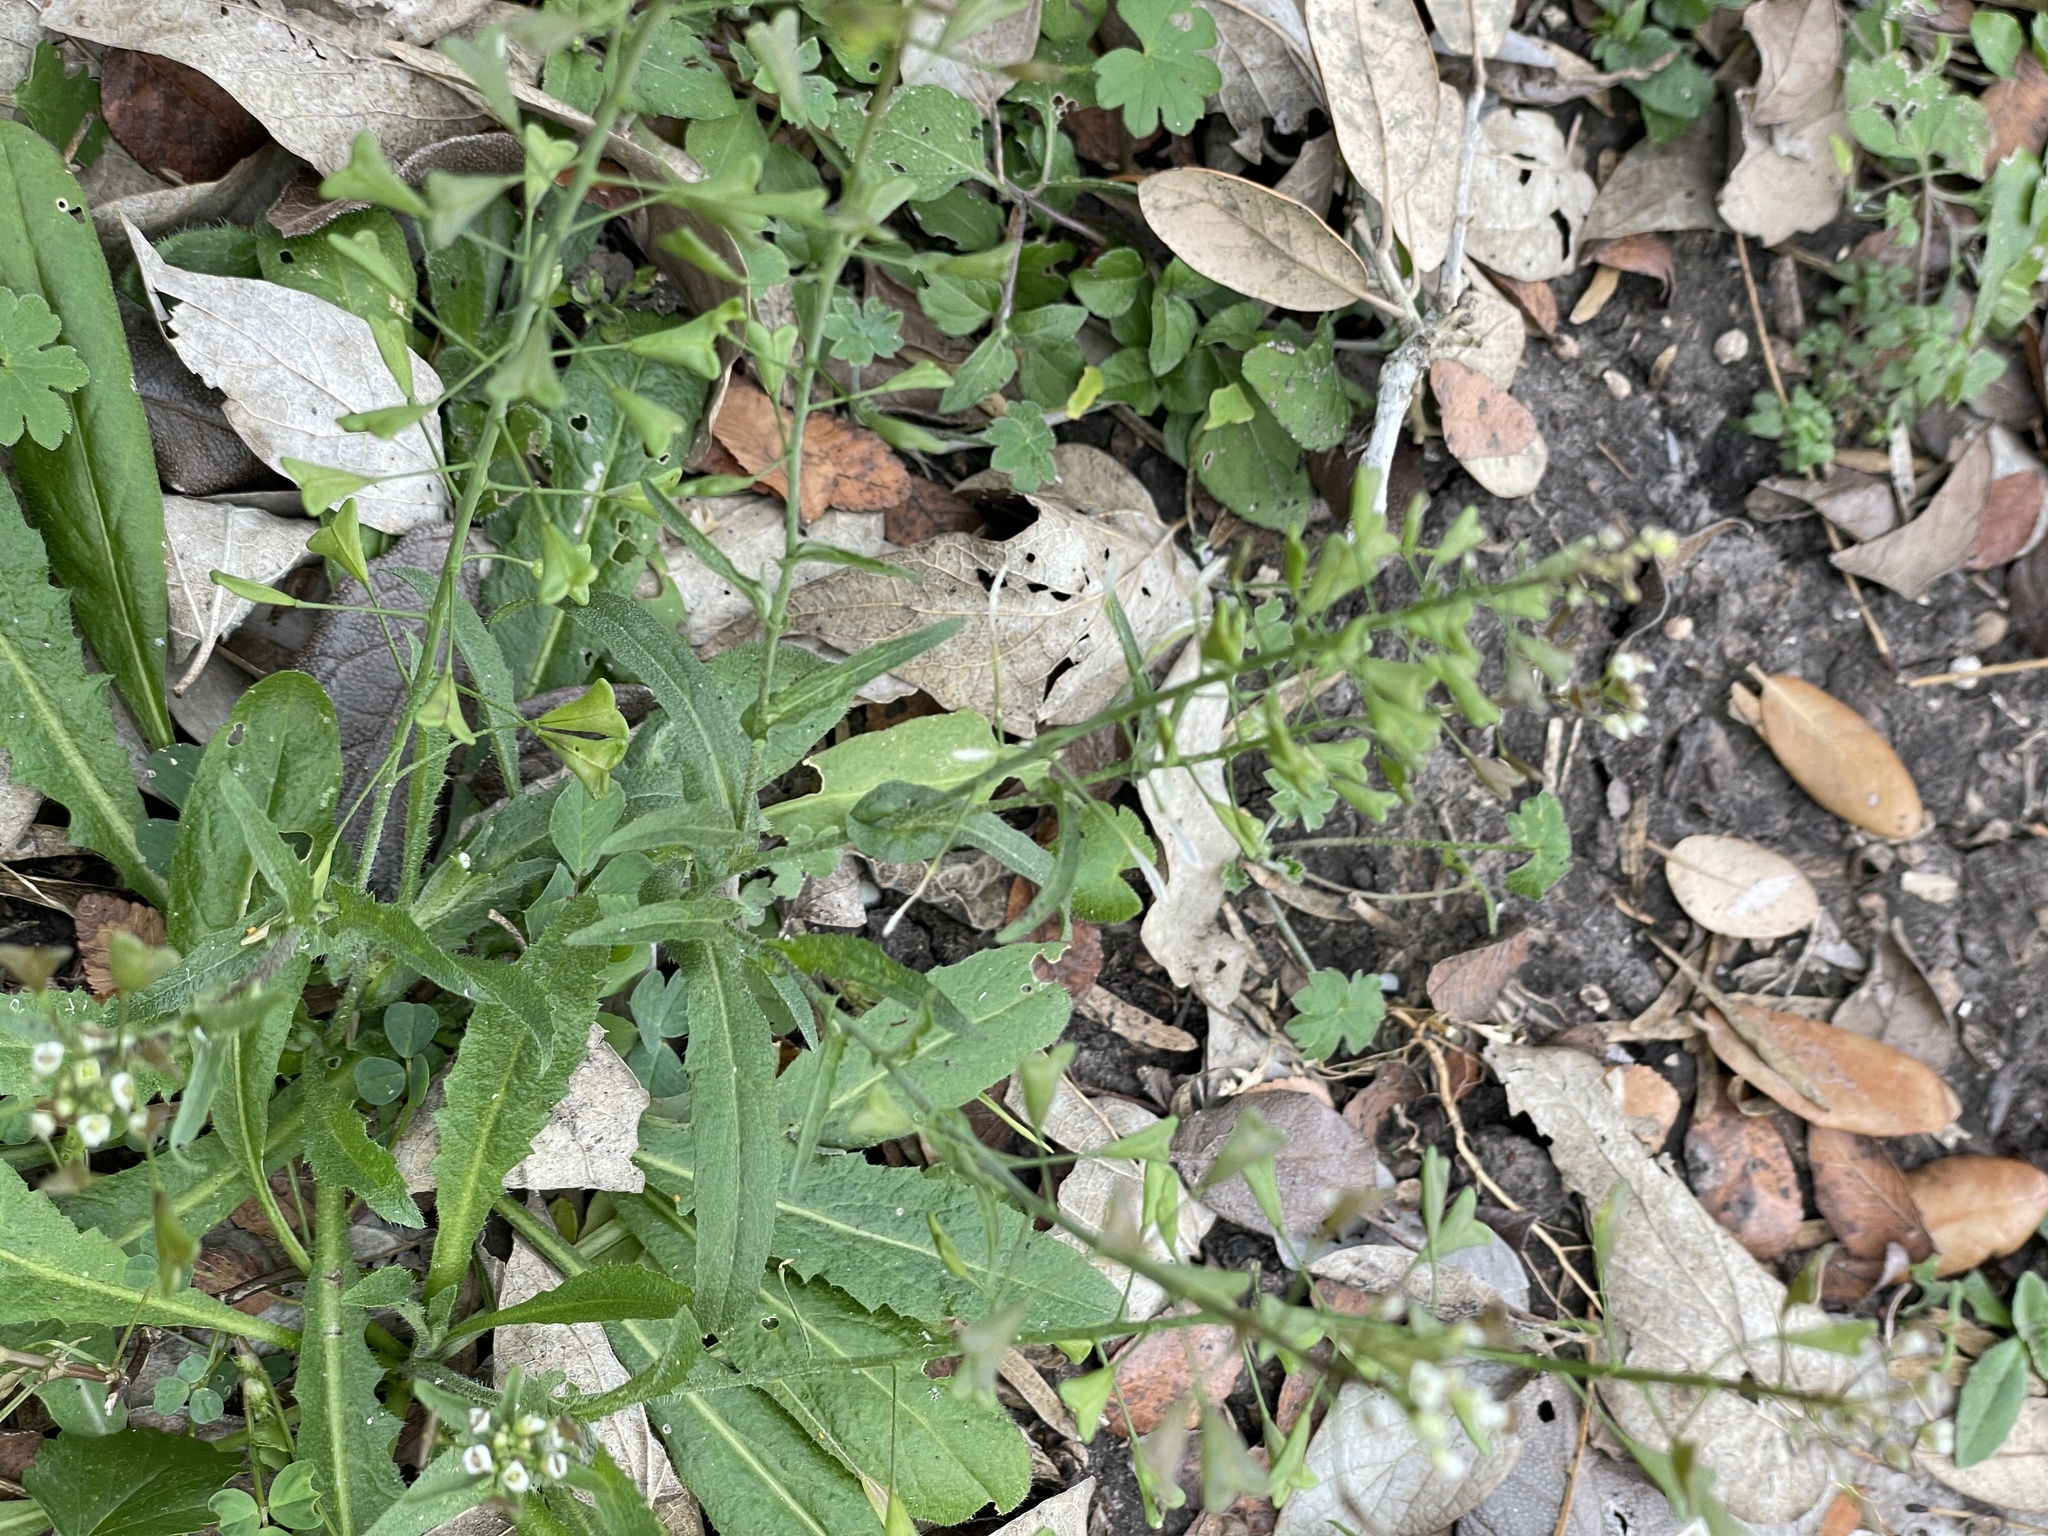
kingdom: Plantae
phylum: Tracheophyta
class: Magnoliopsida
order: Brassicales
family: Brassicaceae
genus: Capsella
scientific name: Capsella bursa-pastoris
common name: Shepherd's purse
